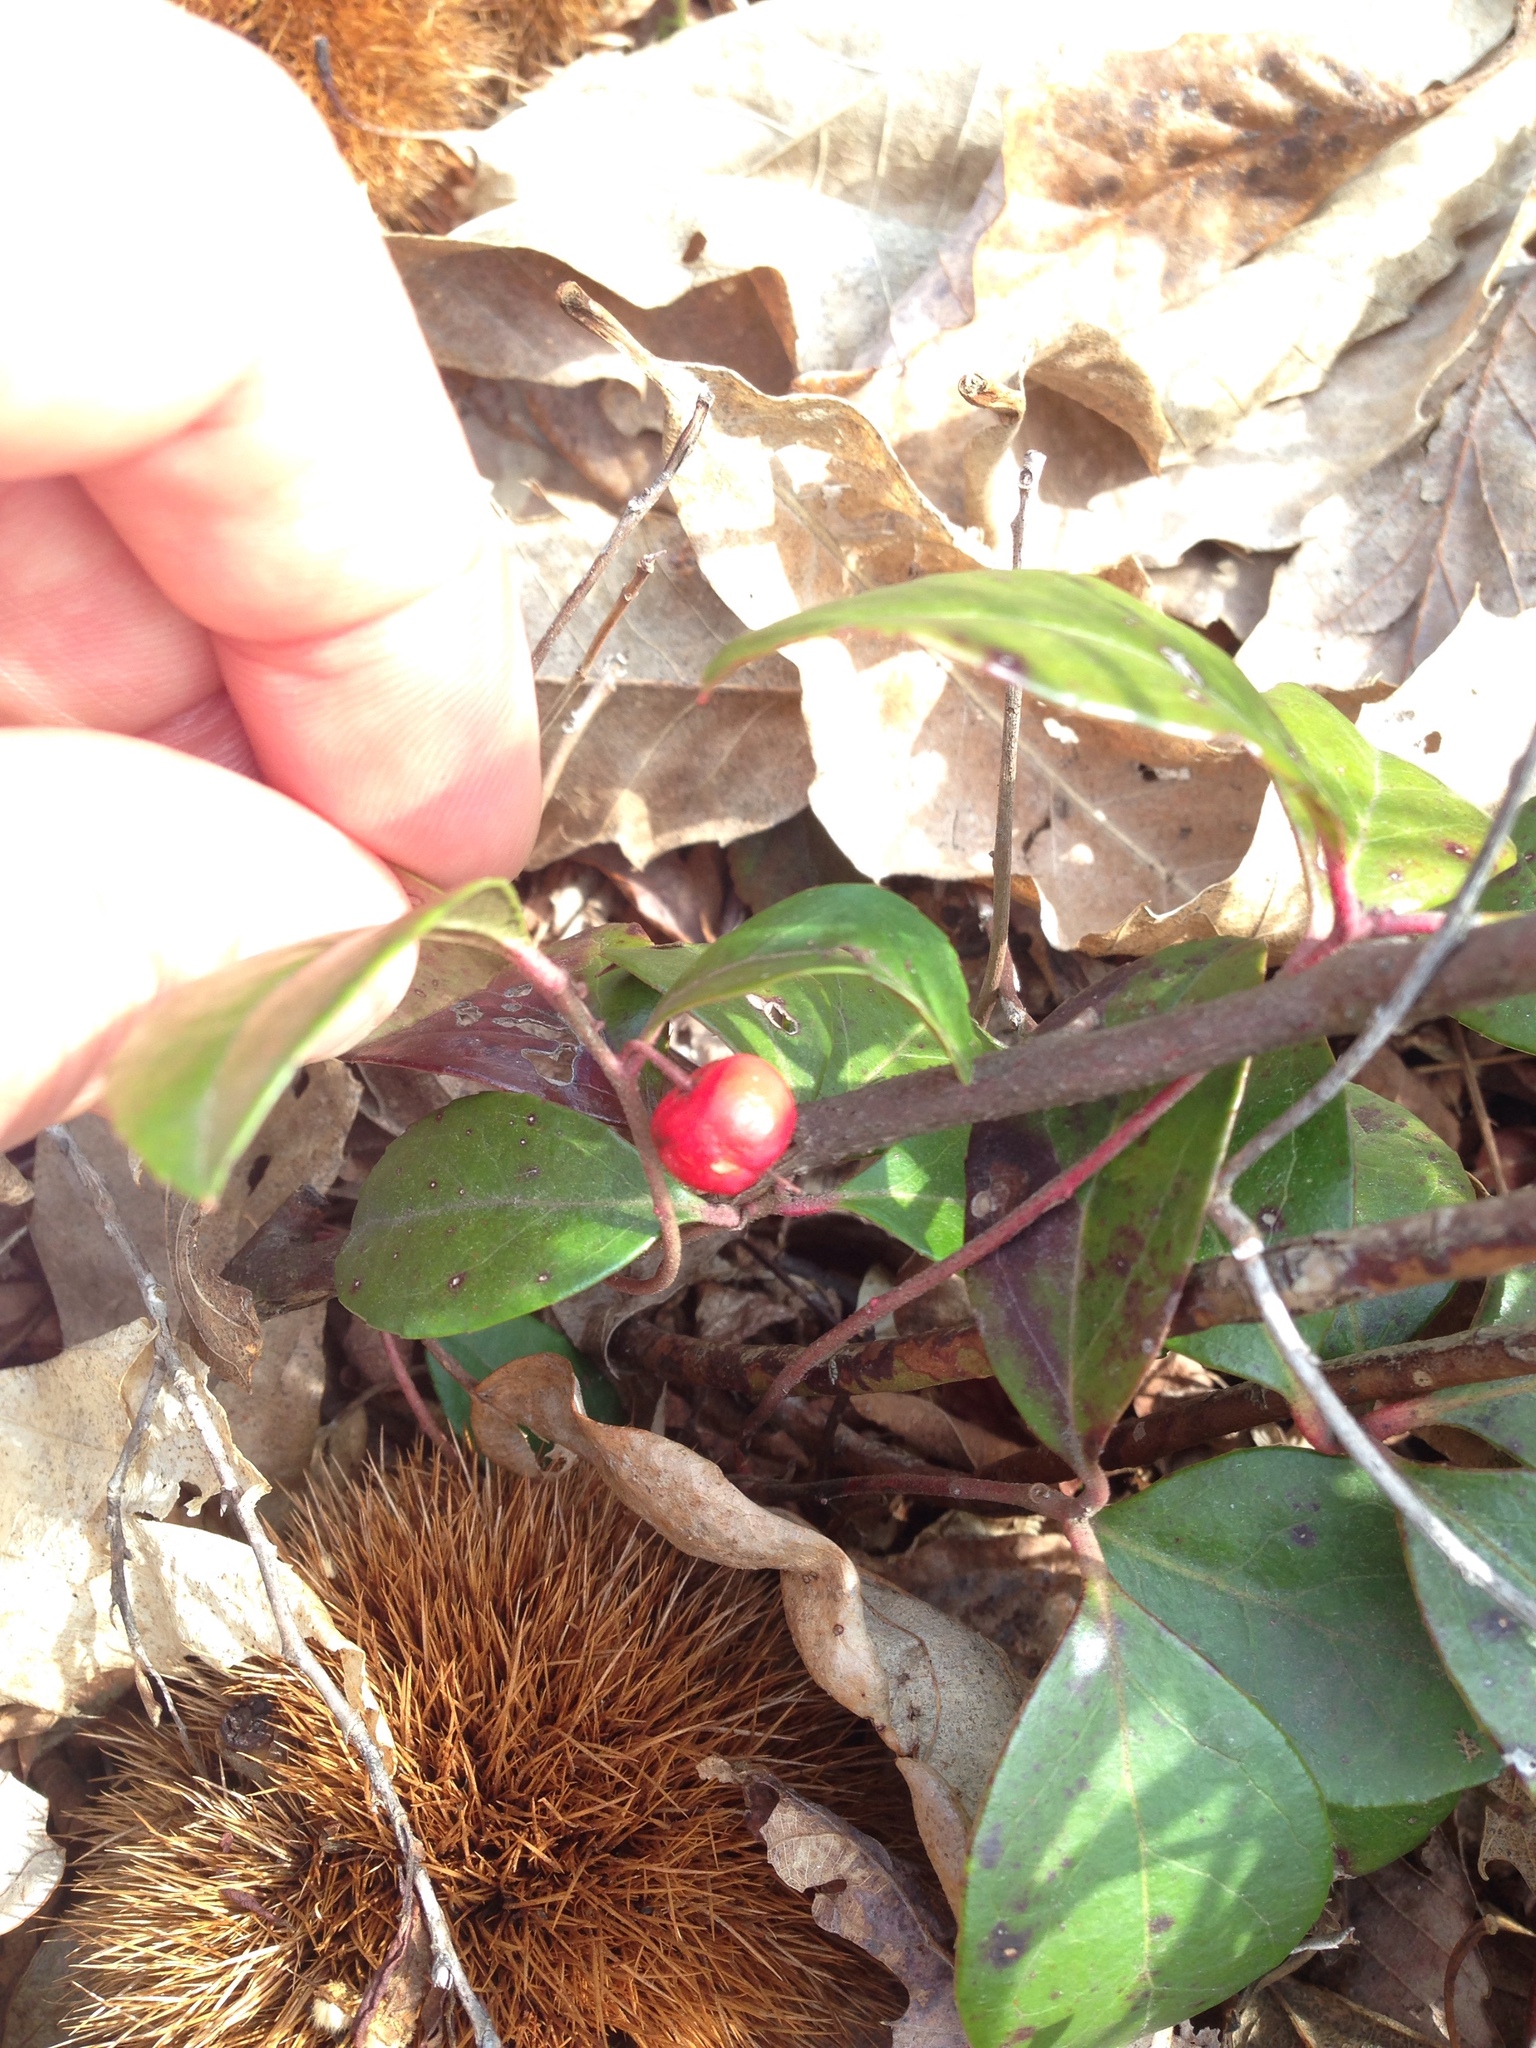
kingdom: Plantae
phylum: Tracheophyta
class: Magnoliopsida
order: Ericales
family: Ericaceae
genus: Gaultheria
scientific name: Gaultheria procumbens
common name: Checkerberry
